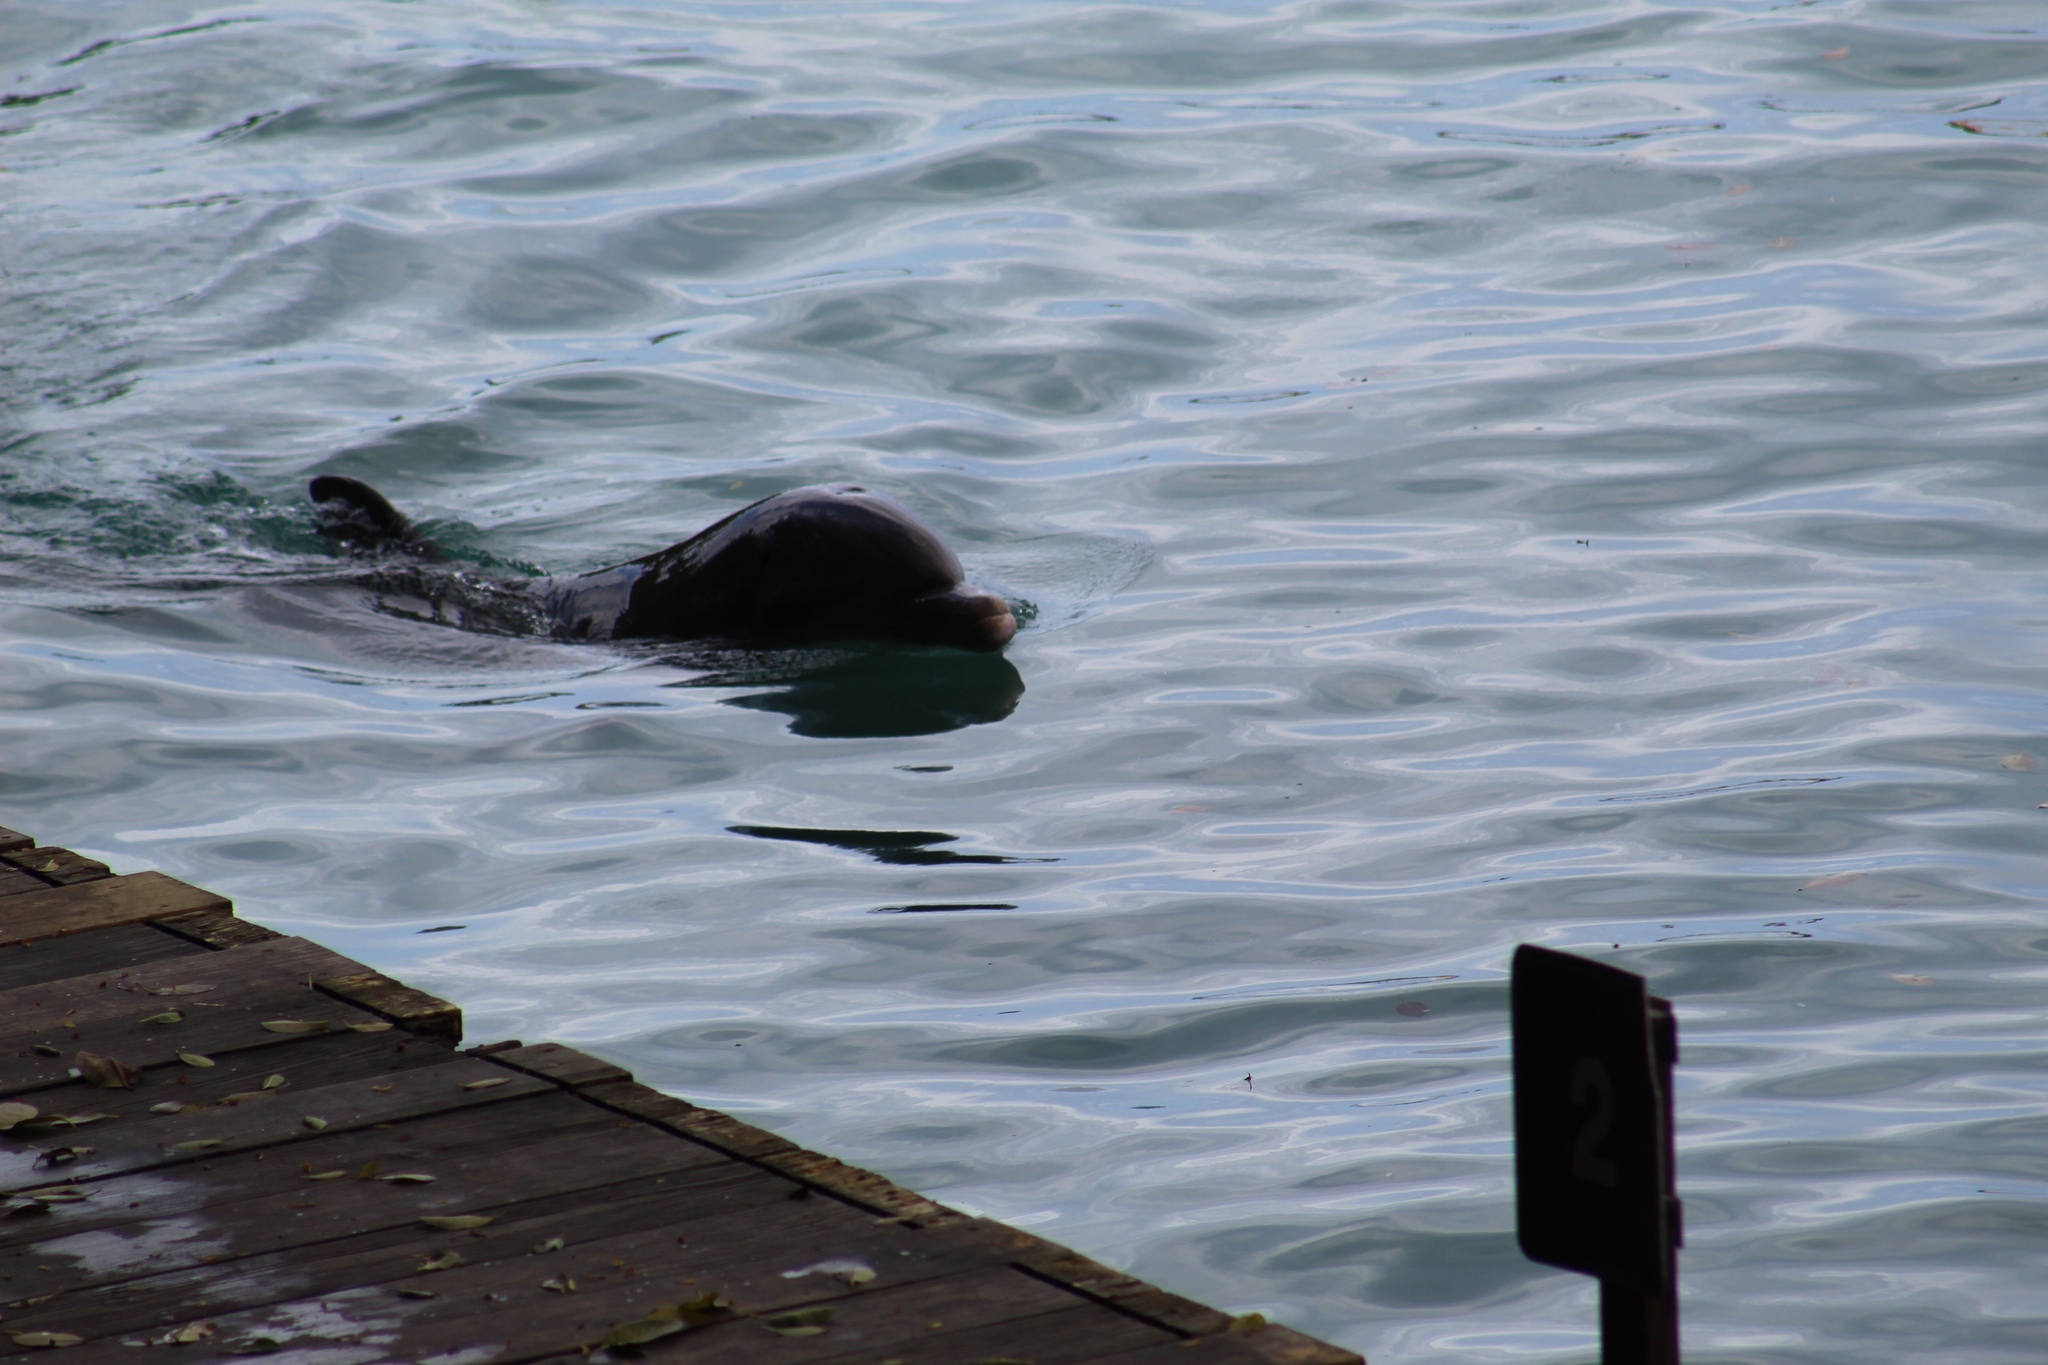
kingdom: Animalia
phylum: Chordata
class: Mammalia
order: Cetacea
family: Delphinidae
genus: Tursiops
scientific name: Tursiops truncatus
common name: Bottlenose dolphin
